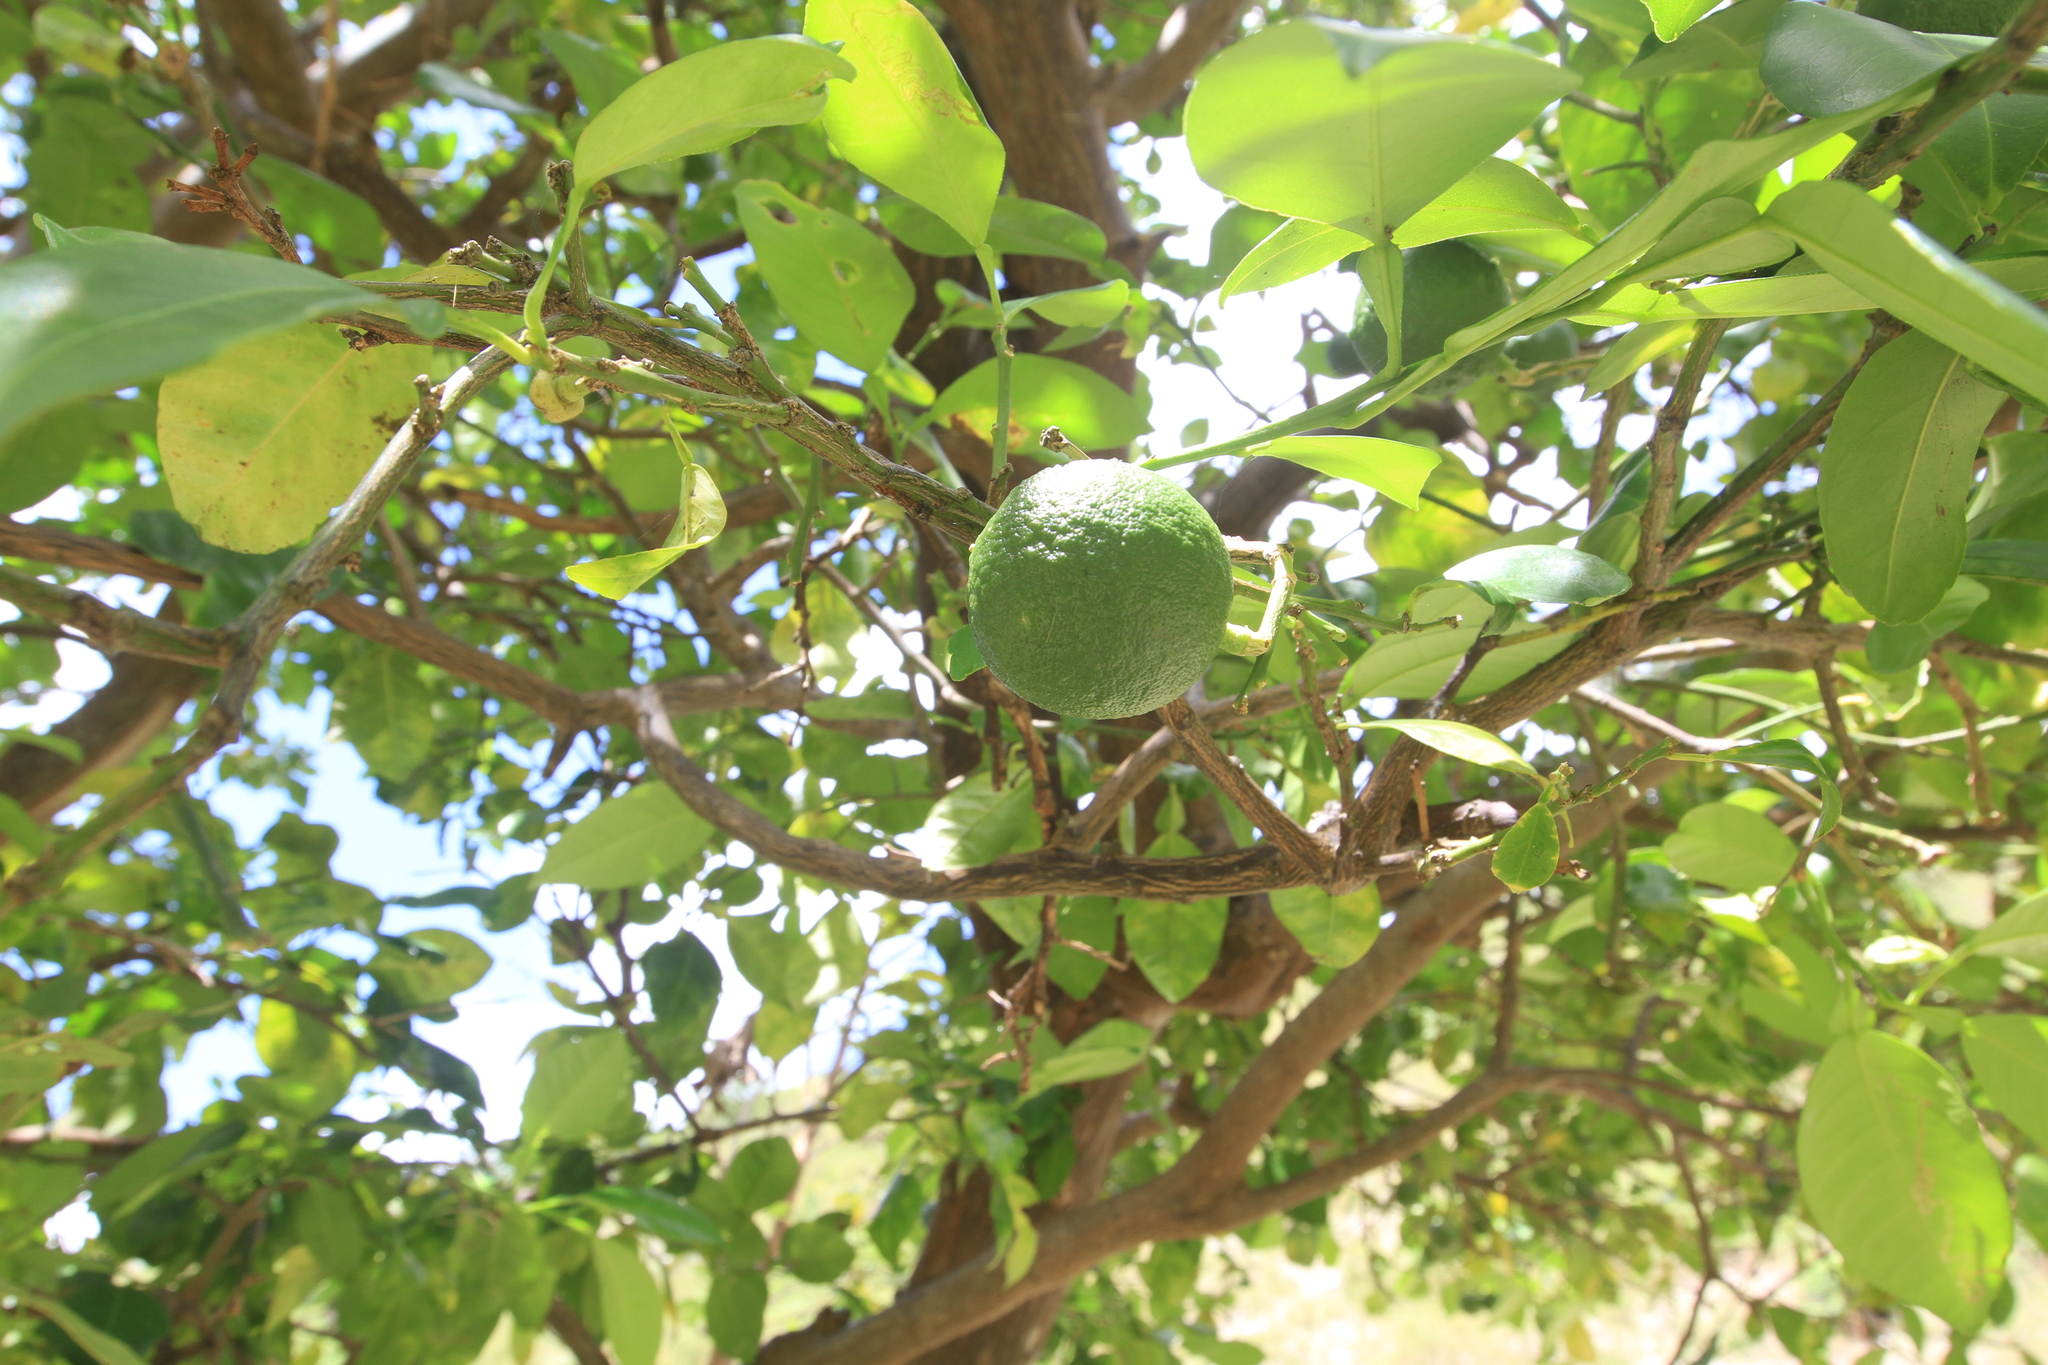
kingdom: Plantae
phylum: Tracheophyta
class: Magnoliopsida
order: Sapindales
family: Rutaceae
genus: Citrus
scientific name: Citrus aurantium
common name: Sour orange
